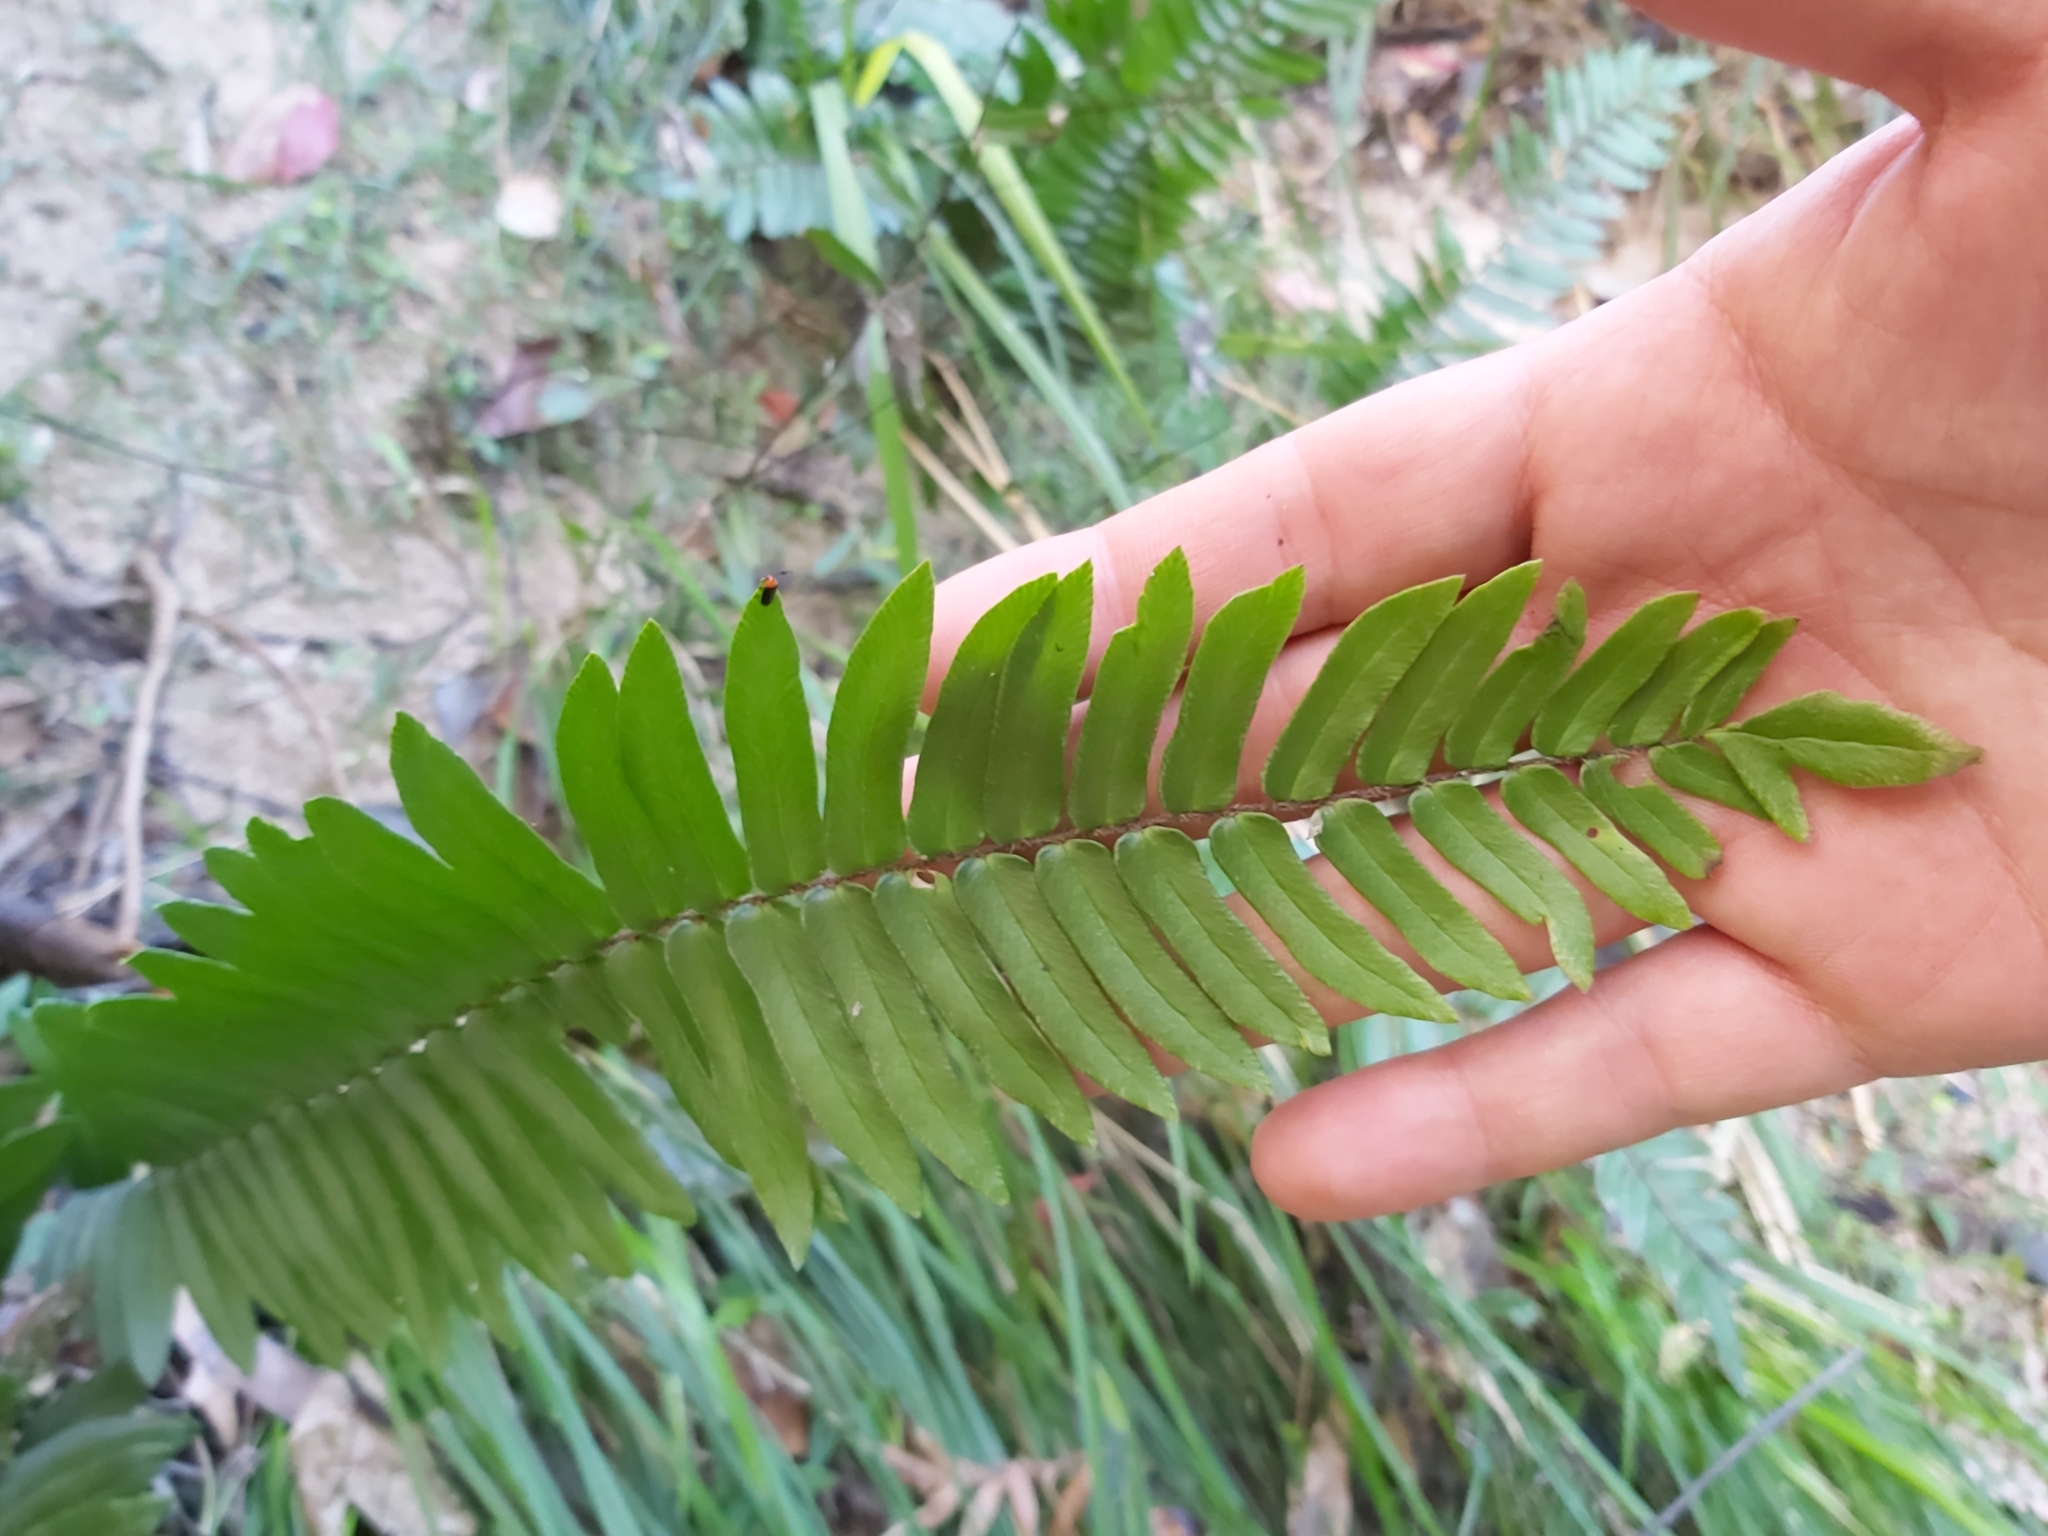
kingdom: Plantae
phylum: Tracheophyta
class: Polypodiopsida
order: Polypodiales
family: Pteridaceae
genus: Pellaea
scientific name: Pellaea falcata
